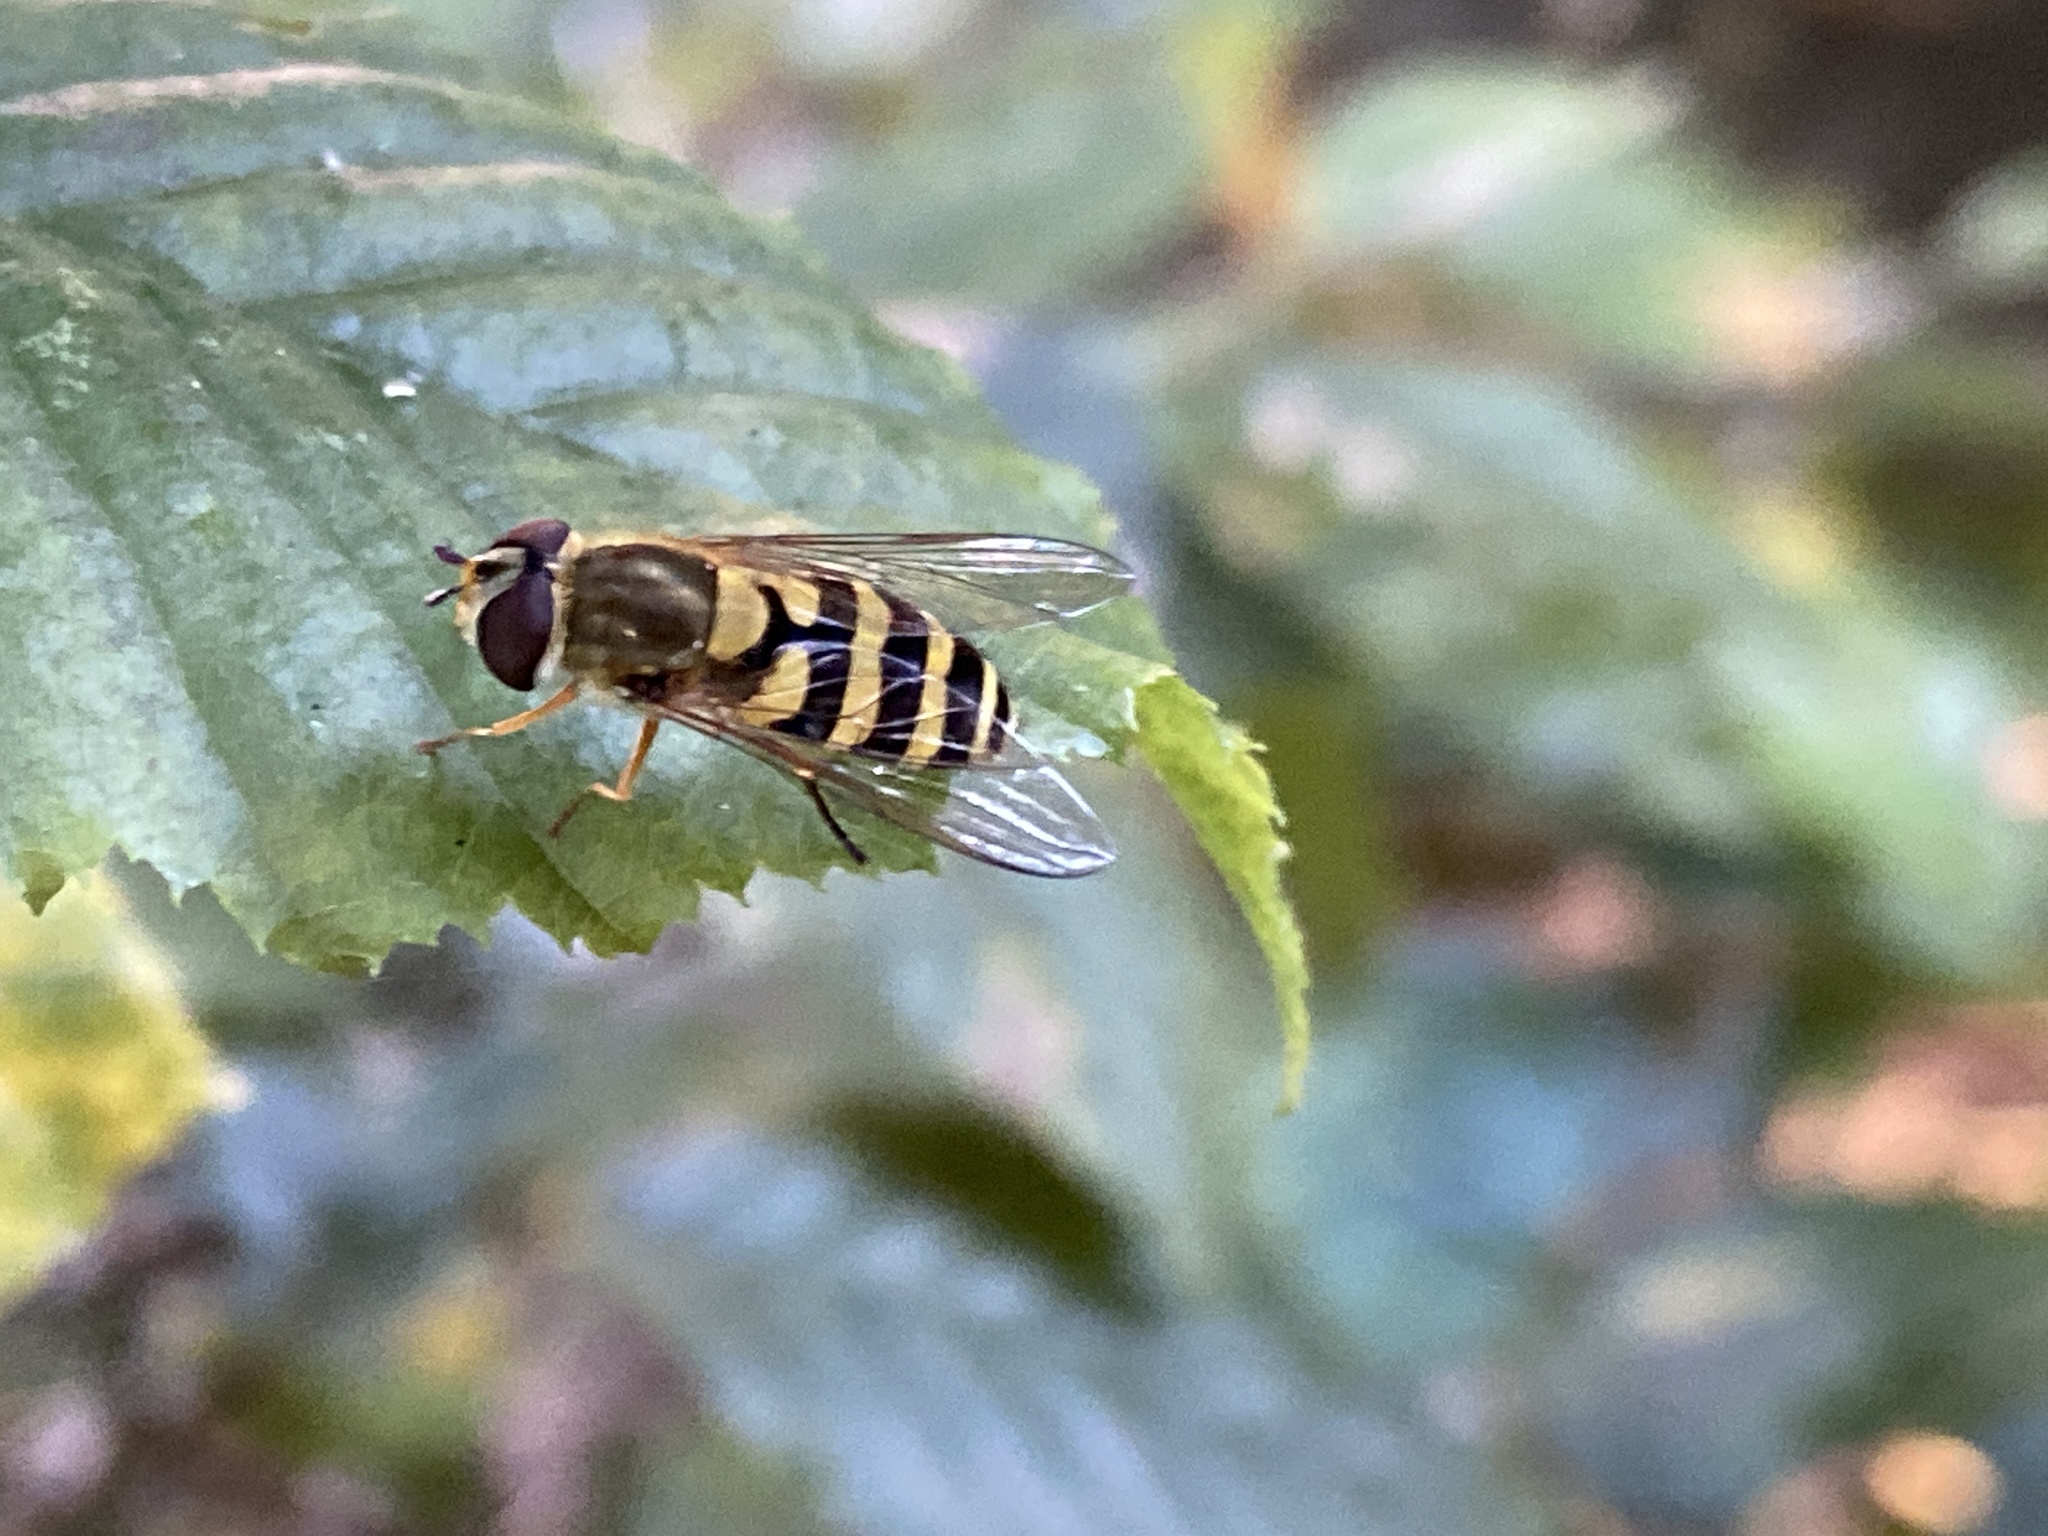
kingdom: Animalia
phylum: Arthropoda
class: Insecta
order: Diptera
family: Syrphidae
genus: Syrphus
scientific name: Syrphus
